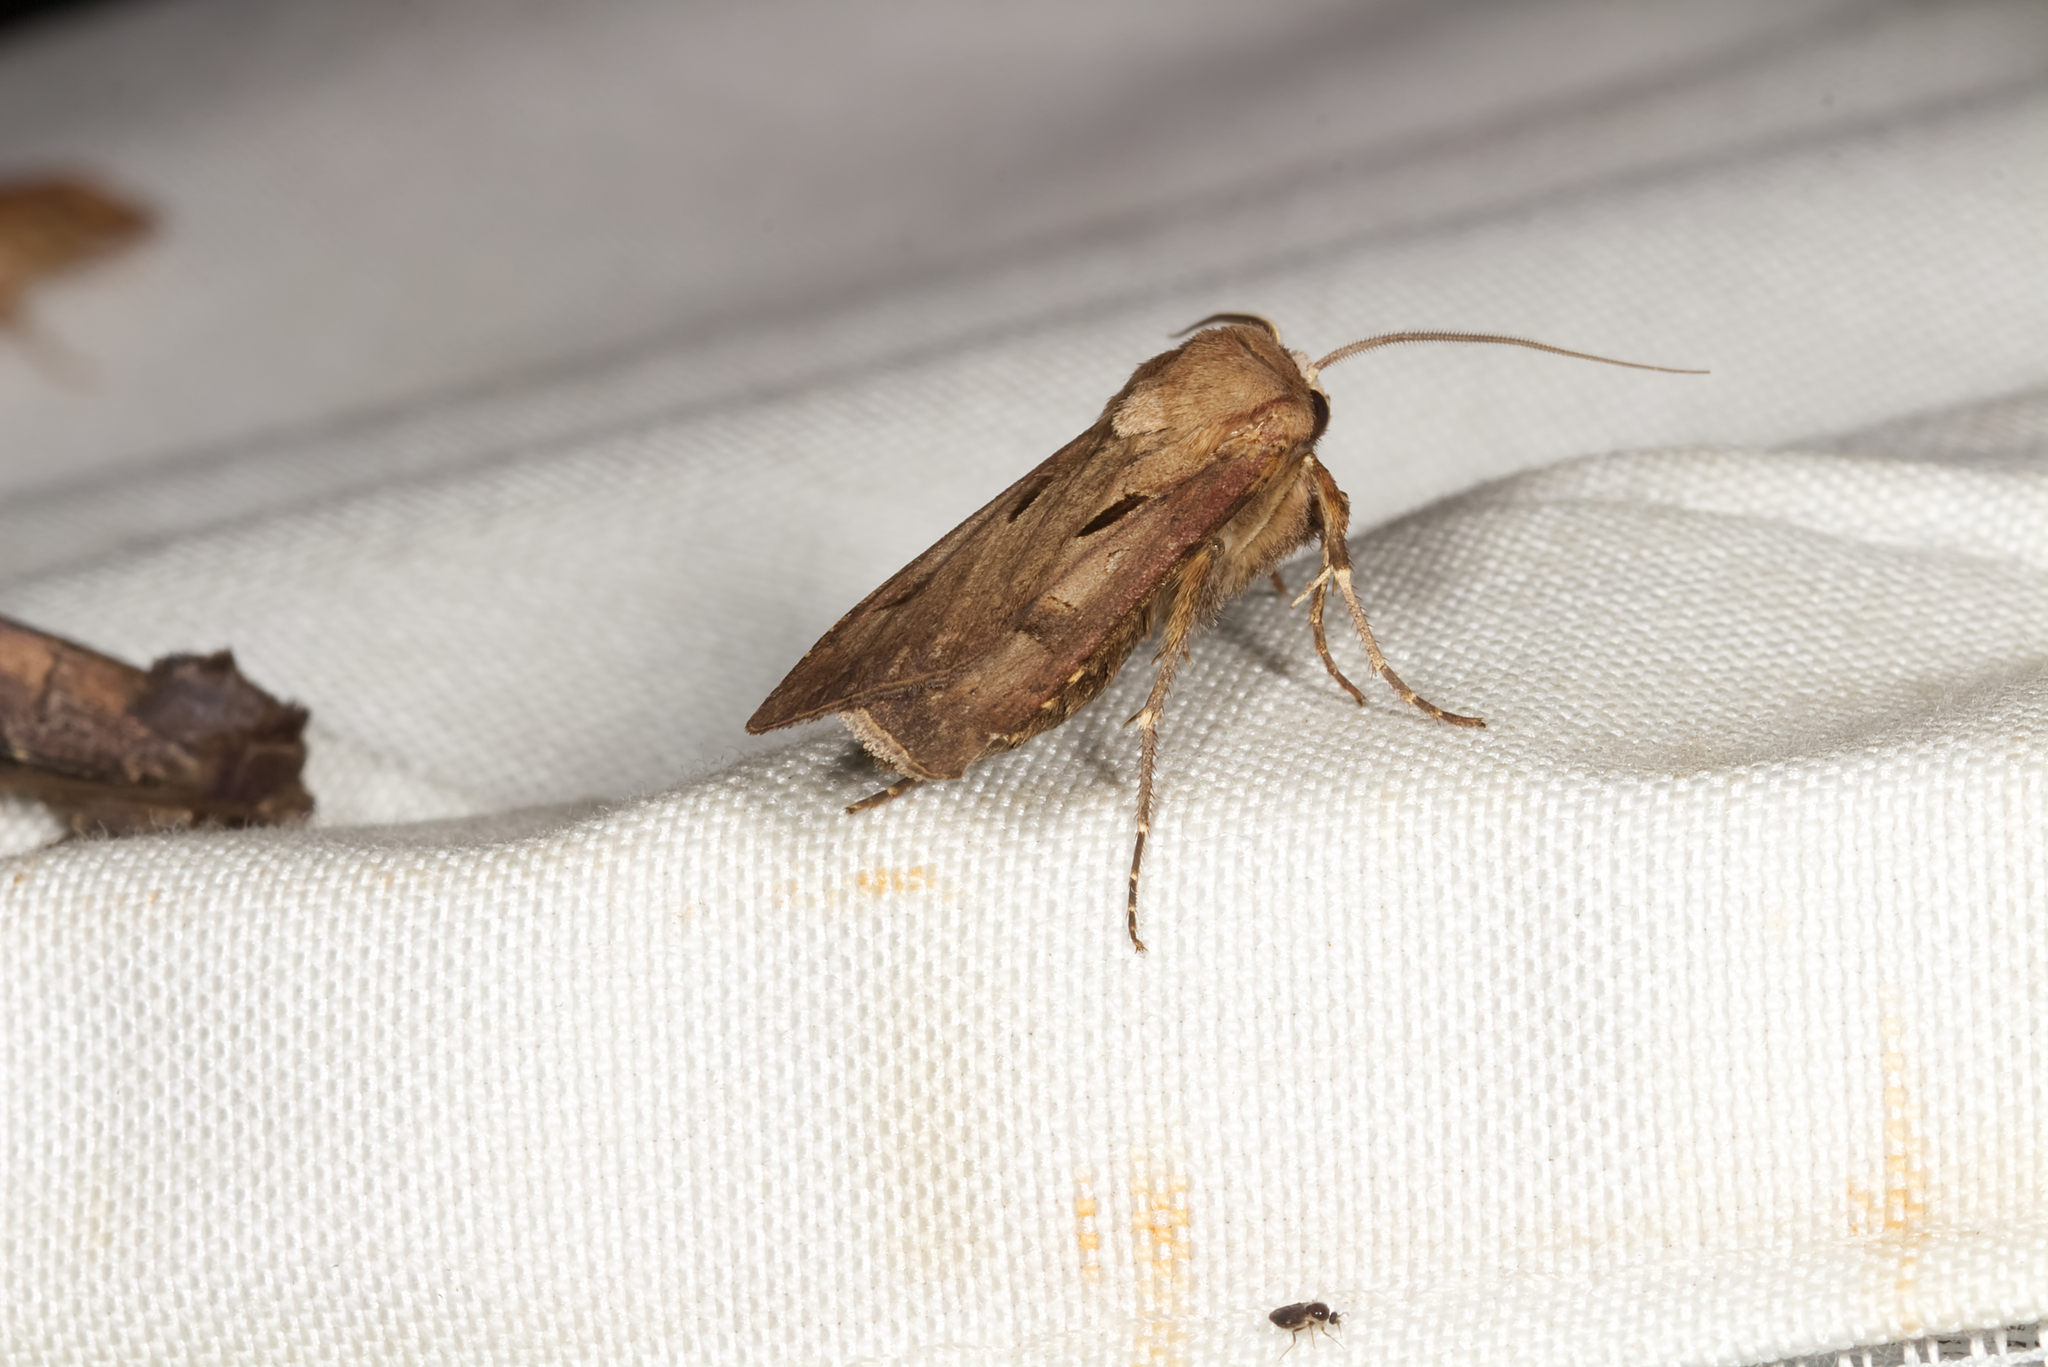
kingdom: Animalia
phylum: Arthropoda
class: Insecta
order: Lepidoptera
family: Noctuidae
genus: Agrotis
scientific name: Agrotis exclamationis
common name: Heart and dart
